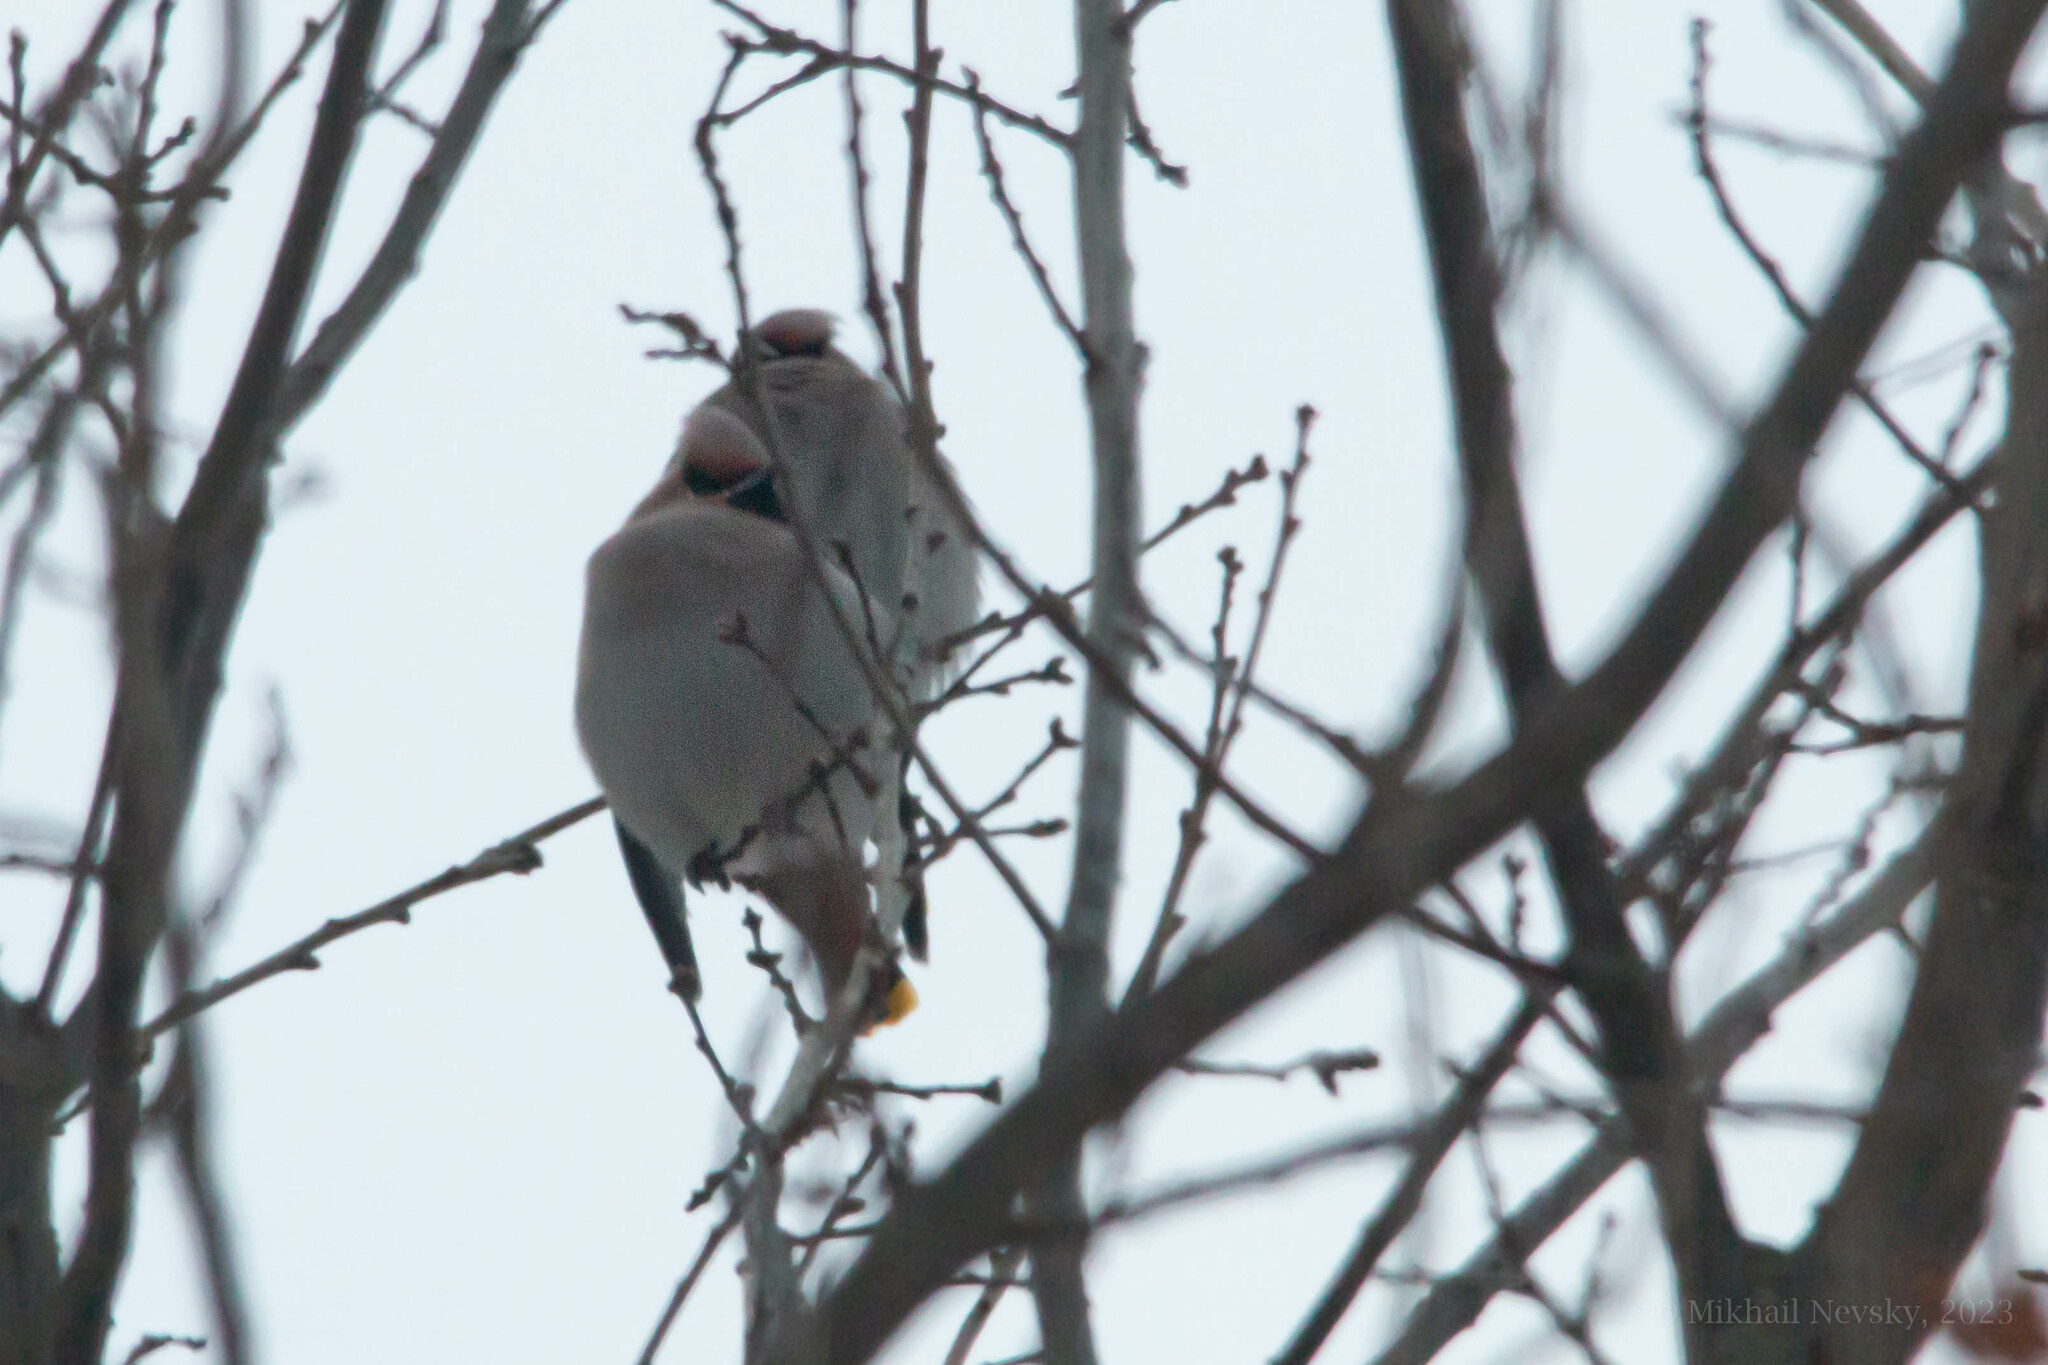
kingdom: Animalia
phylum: Chordata
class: Aves
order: Passeriformes
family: Bombycillidae
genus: Bombycilla
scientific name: Bombycilla garrulus
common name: Bohemian waxwing
